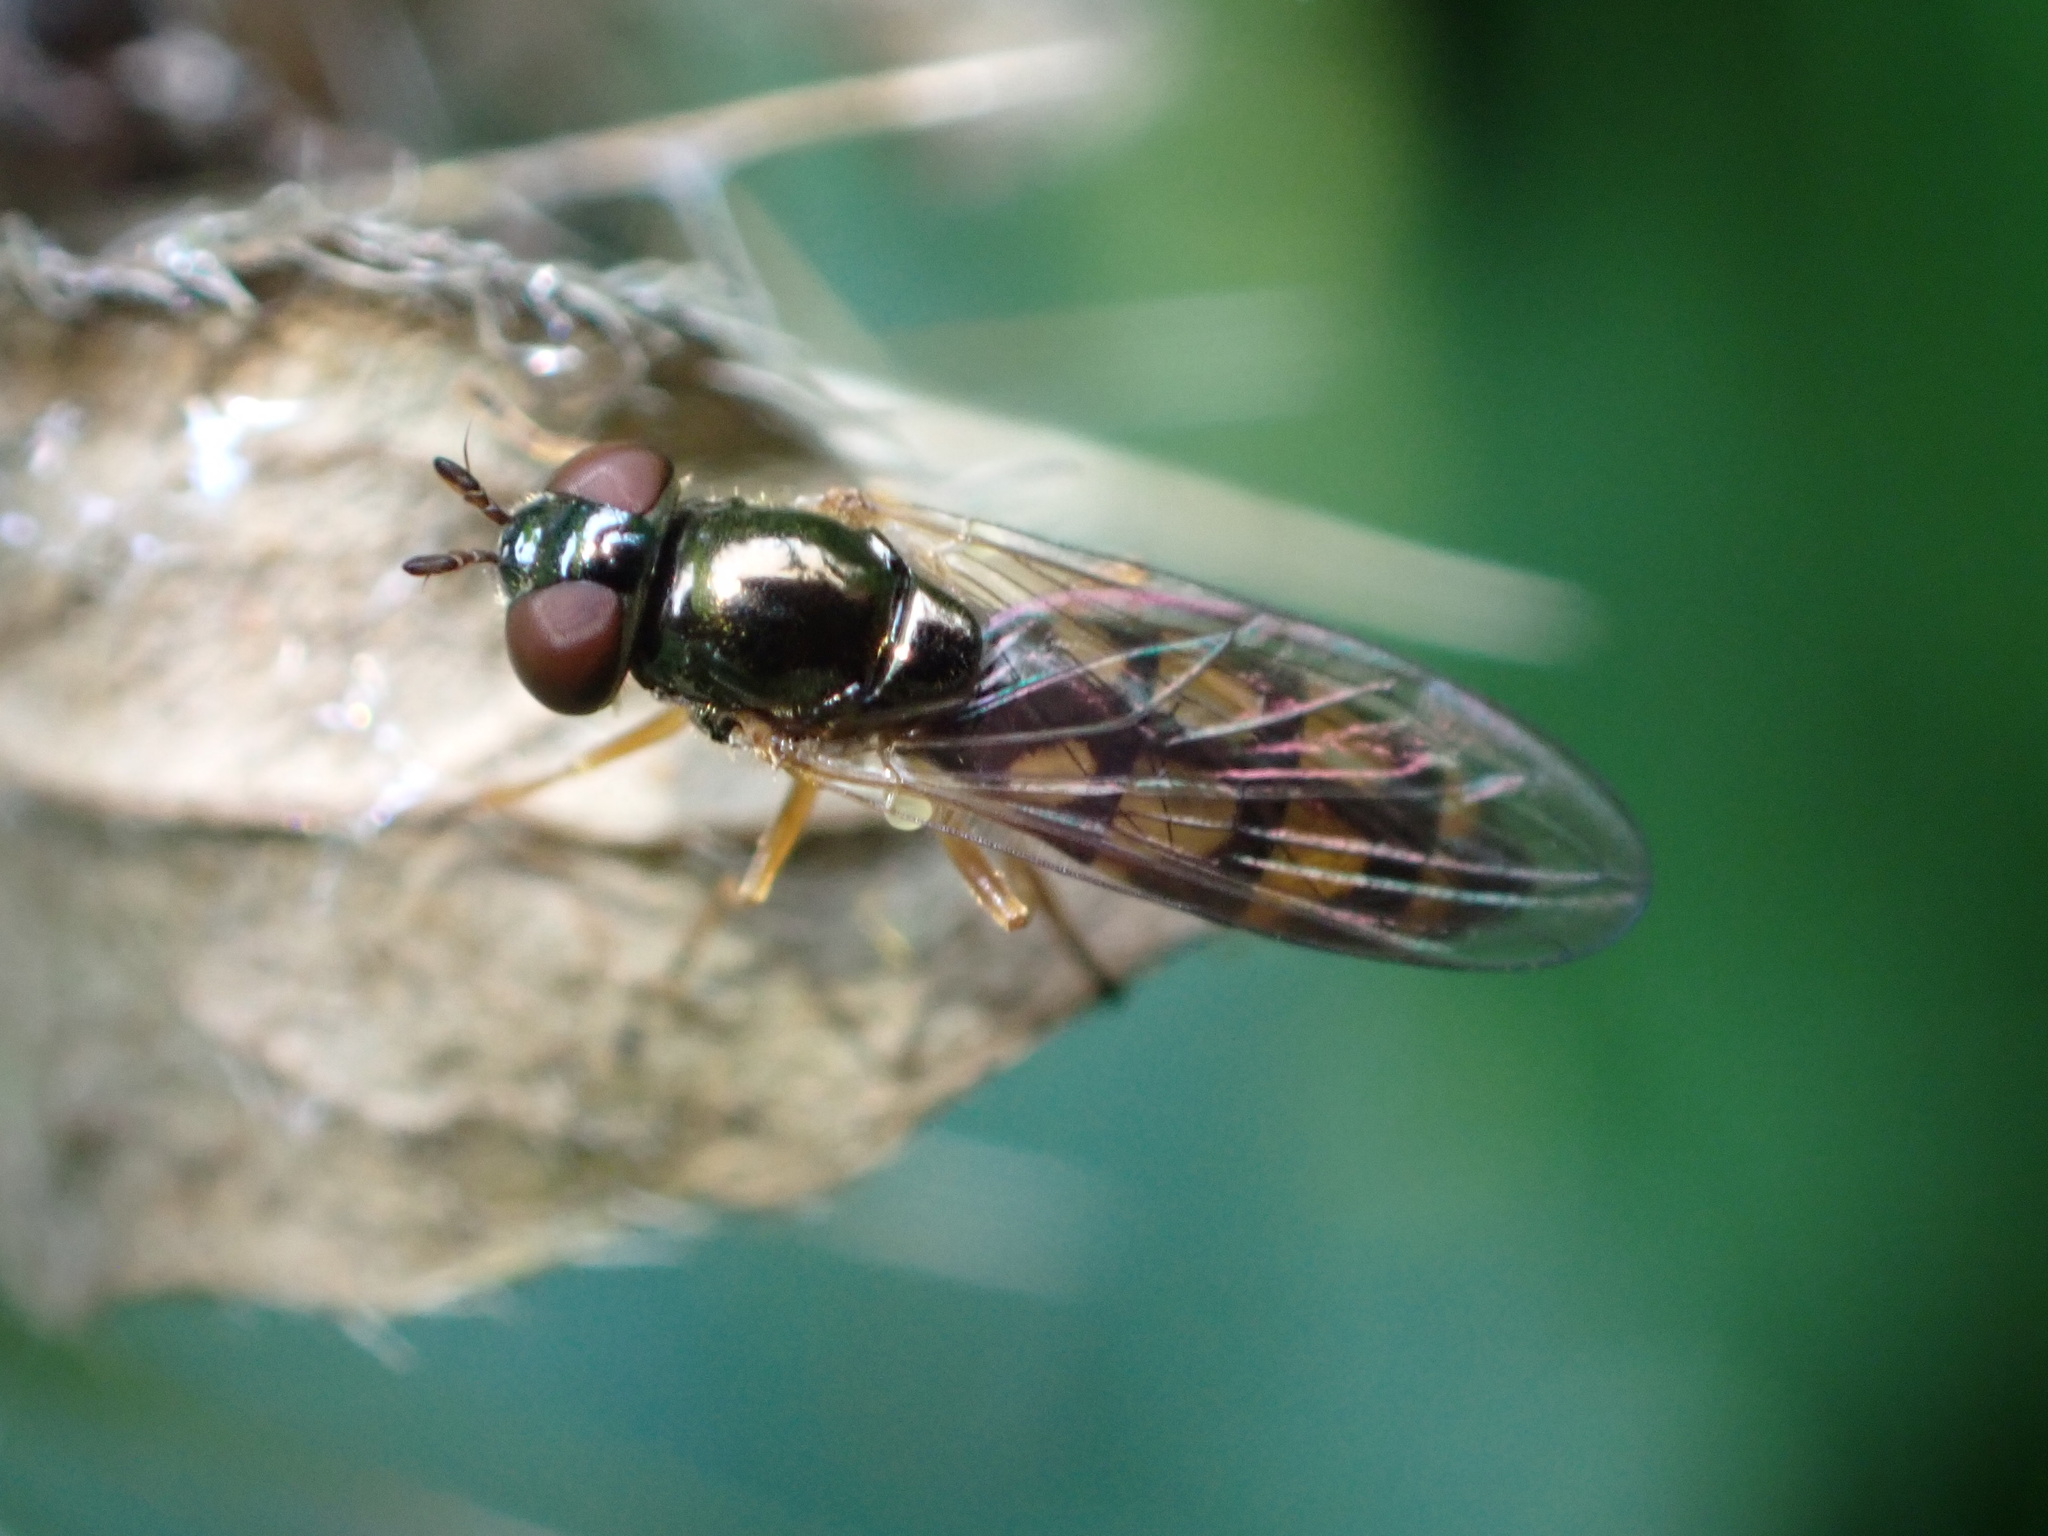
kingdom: Animalia
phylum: Arthropoda
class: Insecta
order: Diptera
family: Syrphidae
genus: Melanostoma
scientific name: Melanostoma mellina
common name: Hover fly
